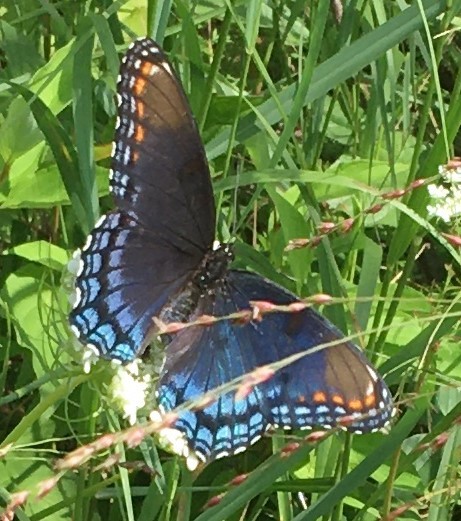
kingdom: Animalia
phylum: Arthropoda
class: Insecta
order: Lepidoptera
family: Nymphalidae
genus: Limenitis
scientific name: Limenitis astyanax
